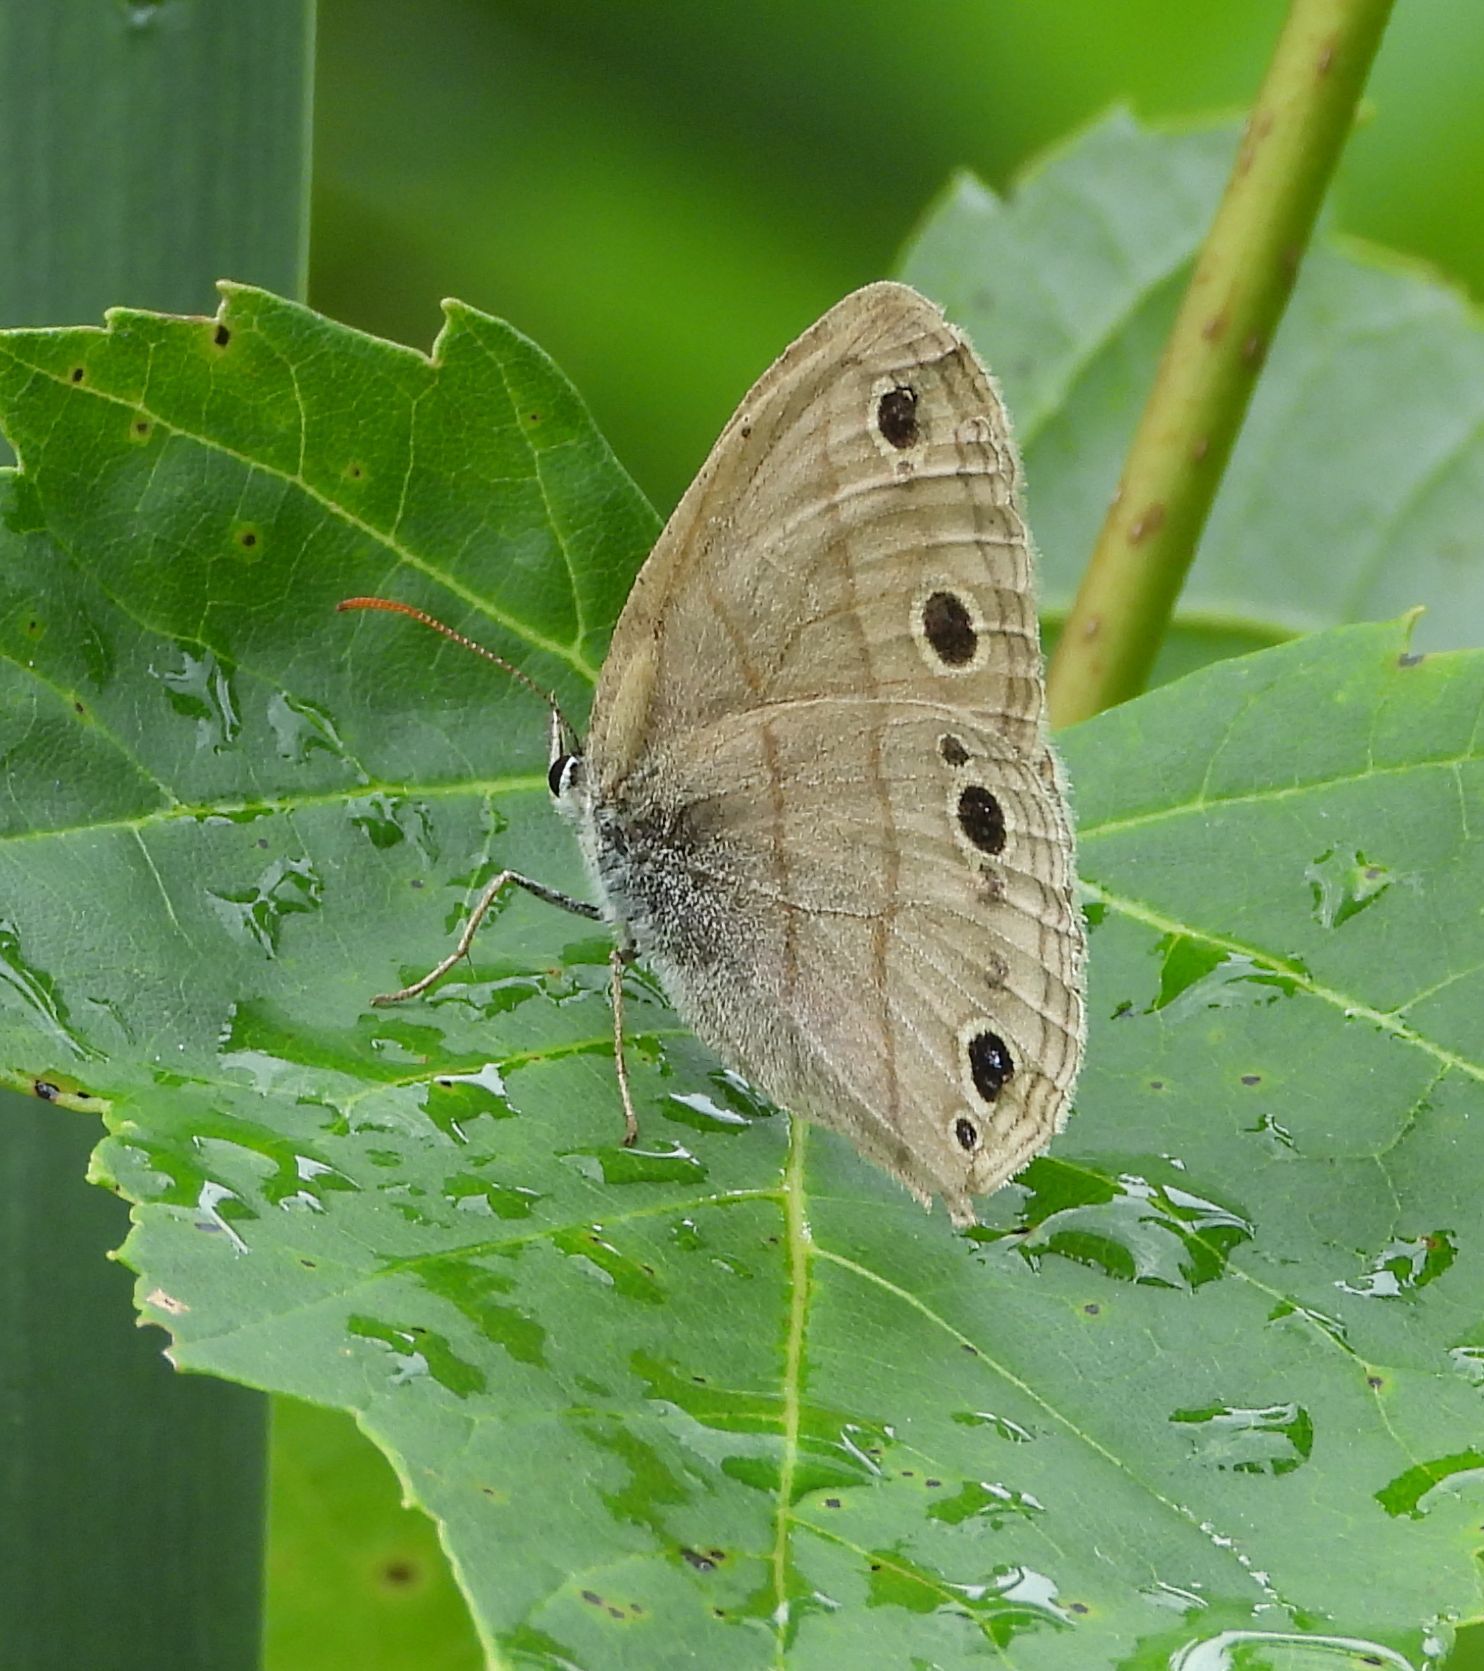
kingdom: Animalia
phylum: Arthropoda
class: Insecta
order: Lepidoptera
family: Nymphalidae
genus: Euptychia
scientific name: Euptychia cymela
